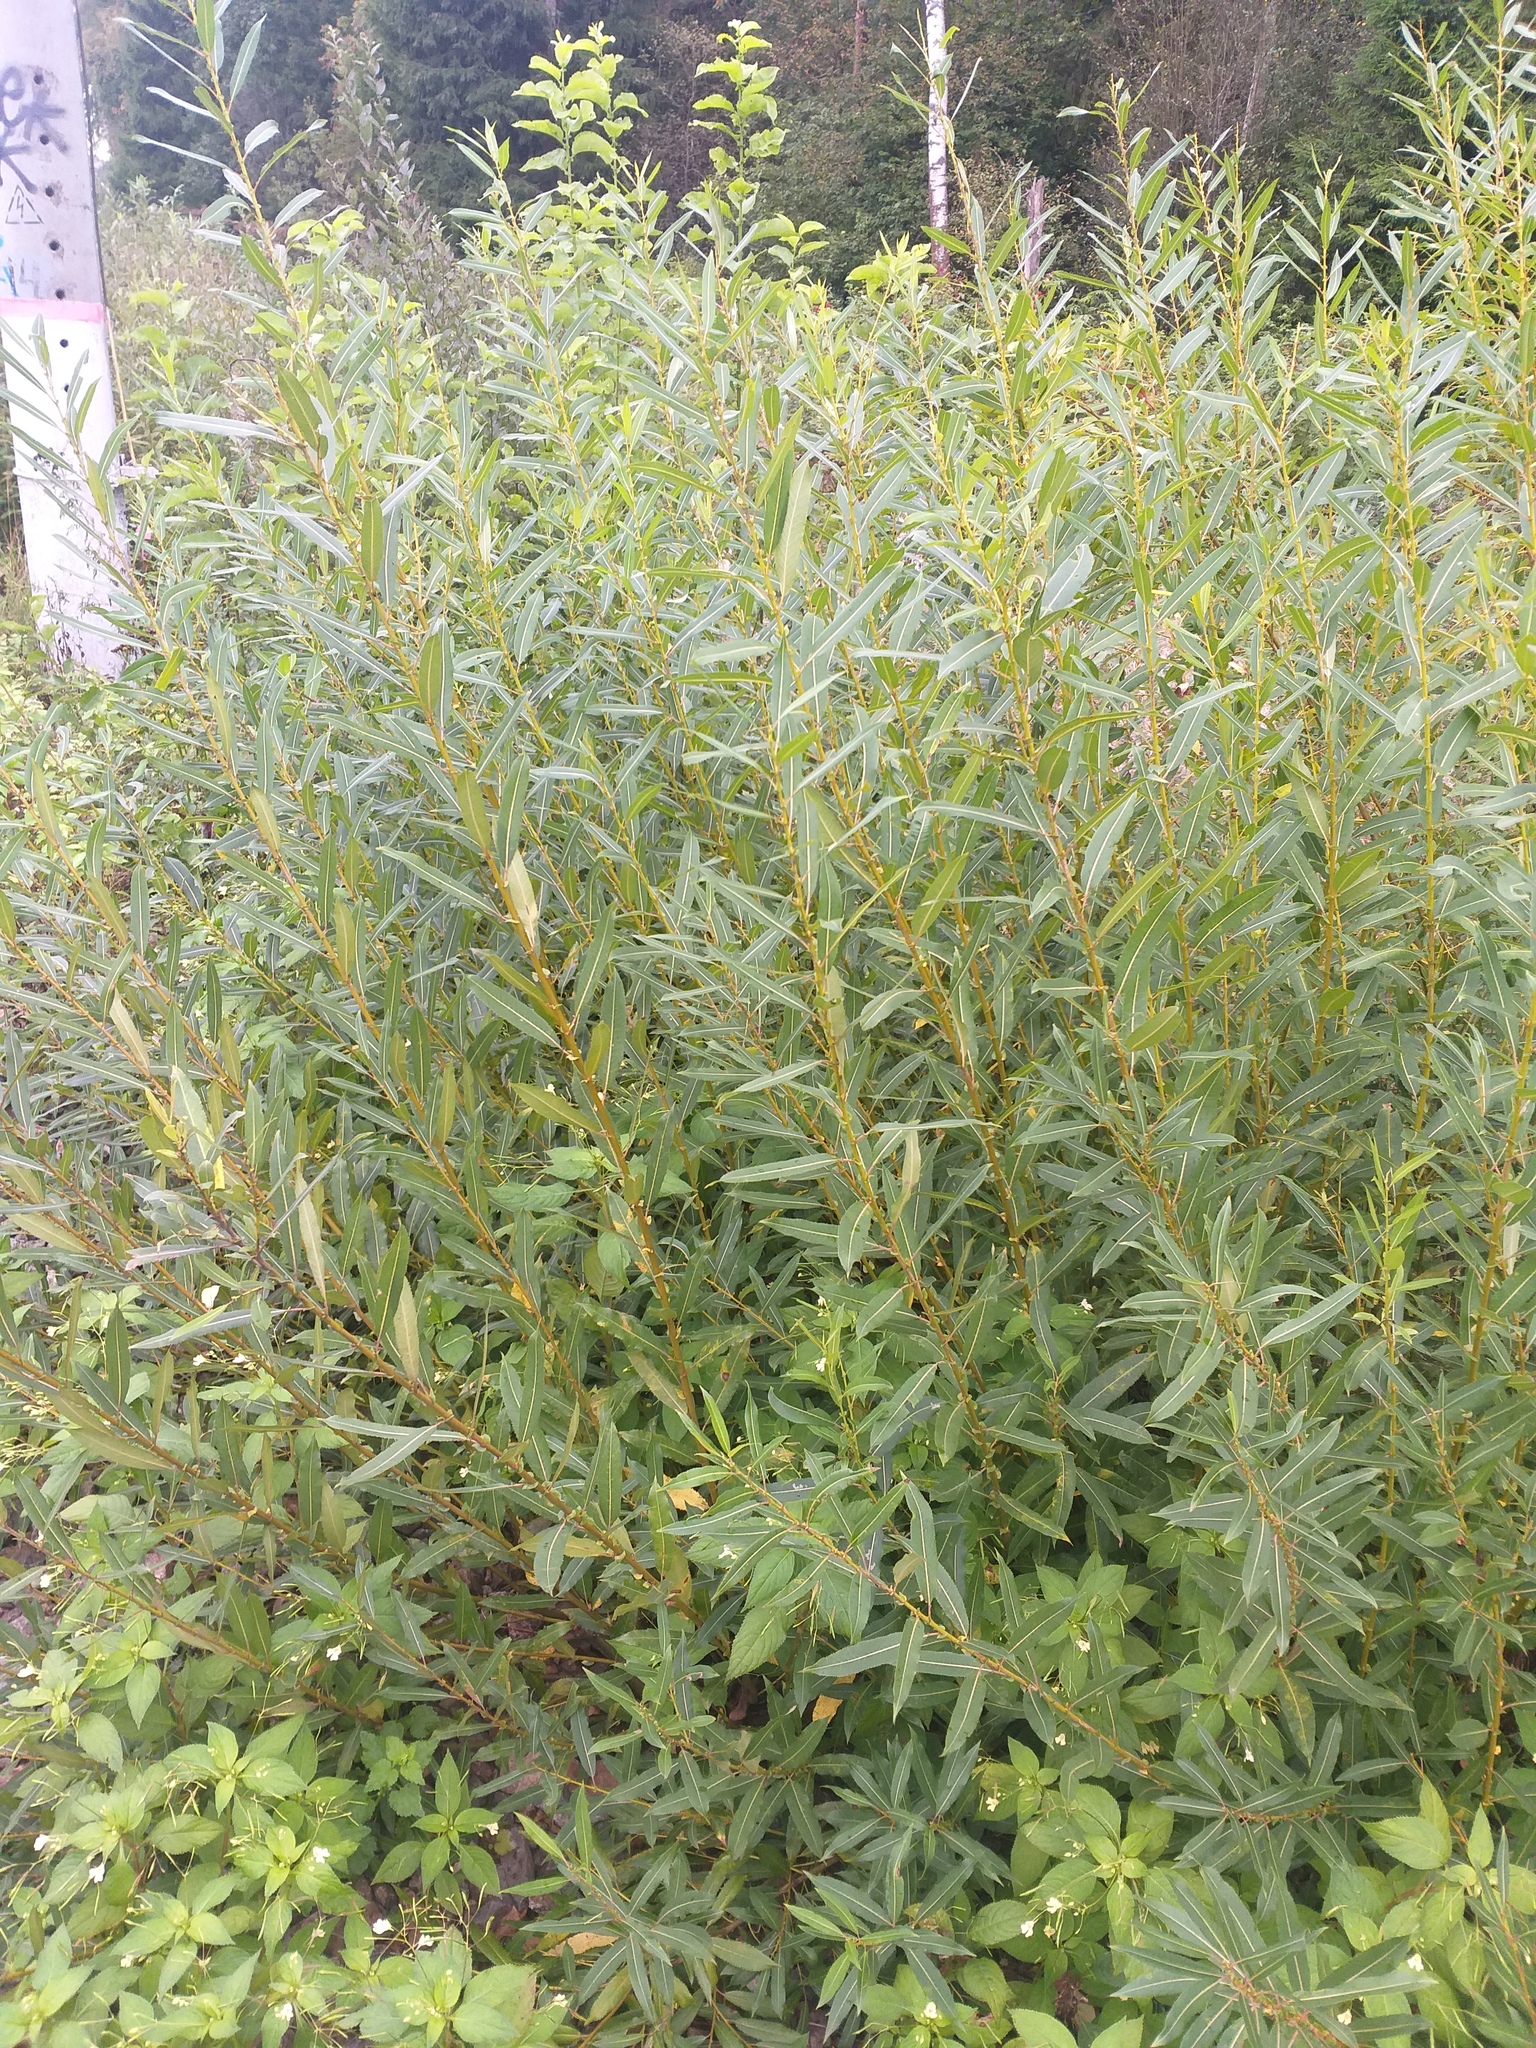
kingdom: Plantae
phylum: Tracheophyta
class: Magnoliopsida
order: Malpighiales
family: Salicaceae
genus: Salix
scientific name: Salix triandra
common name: Almond willow
